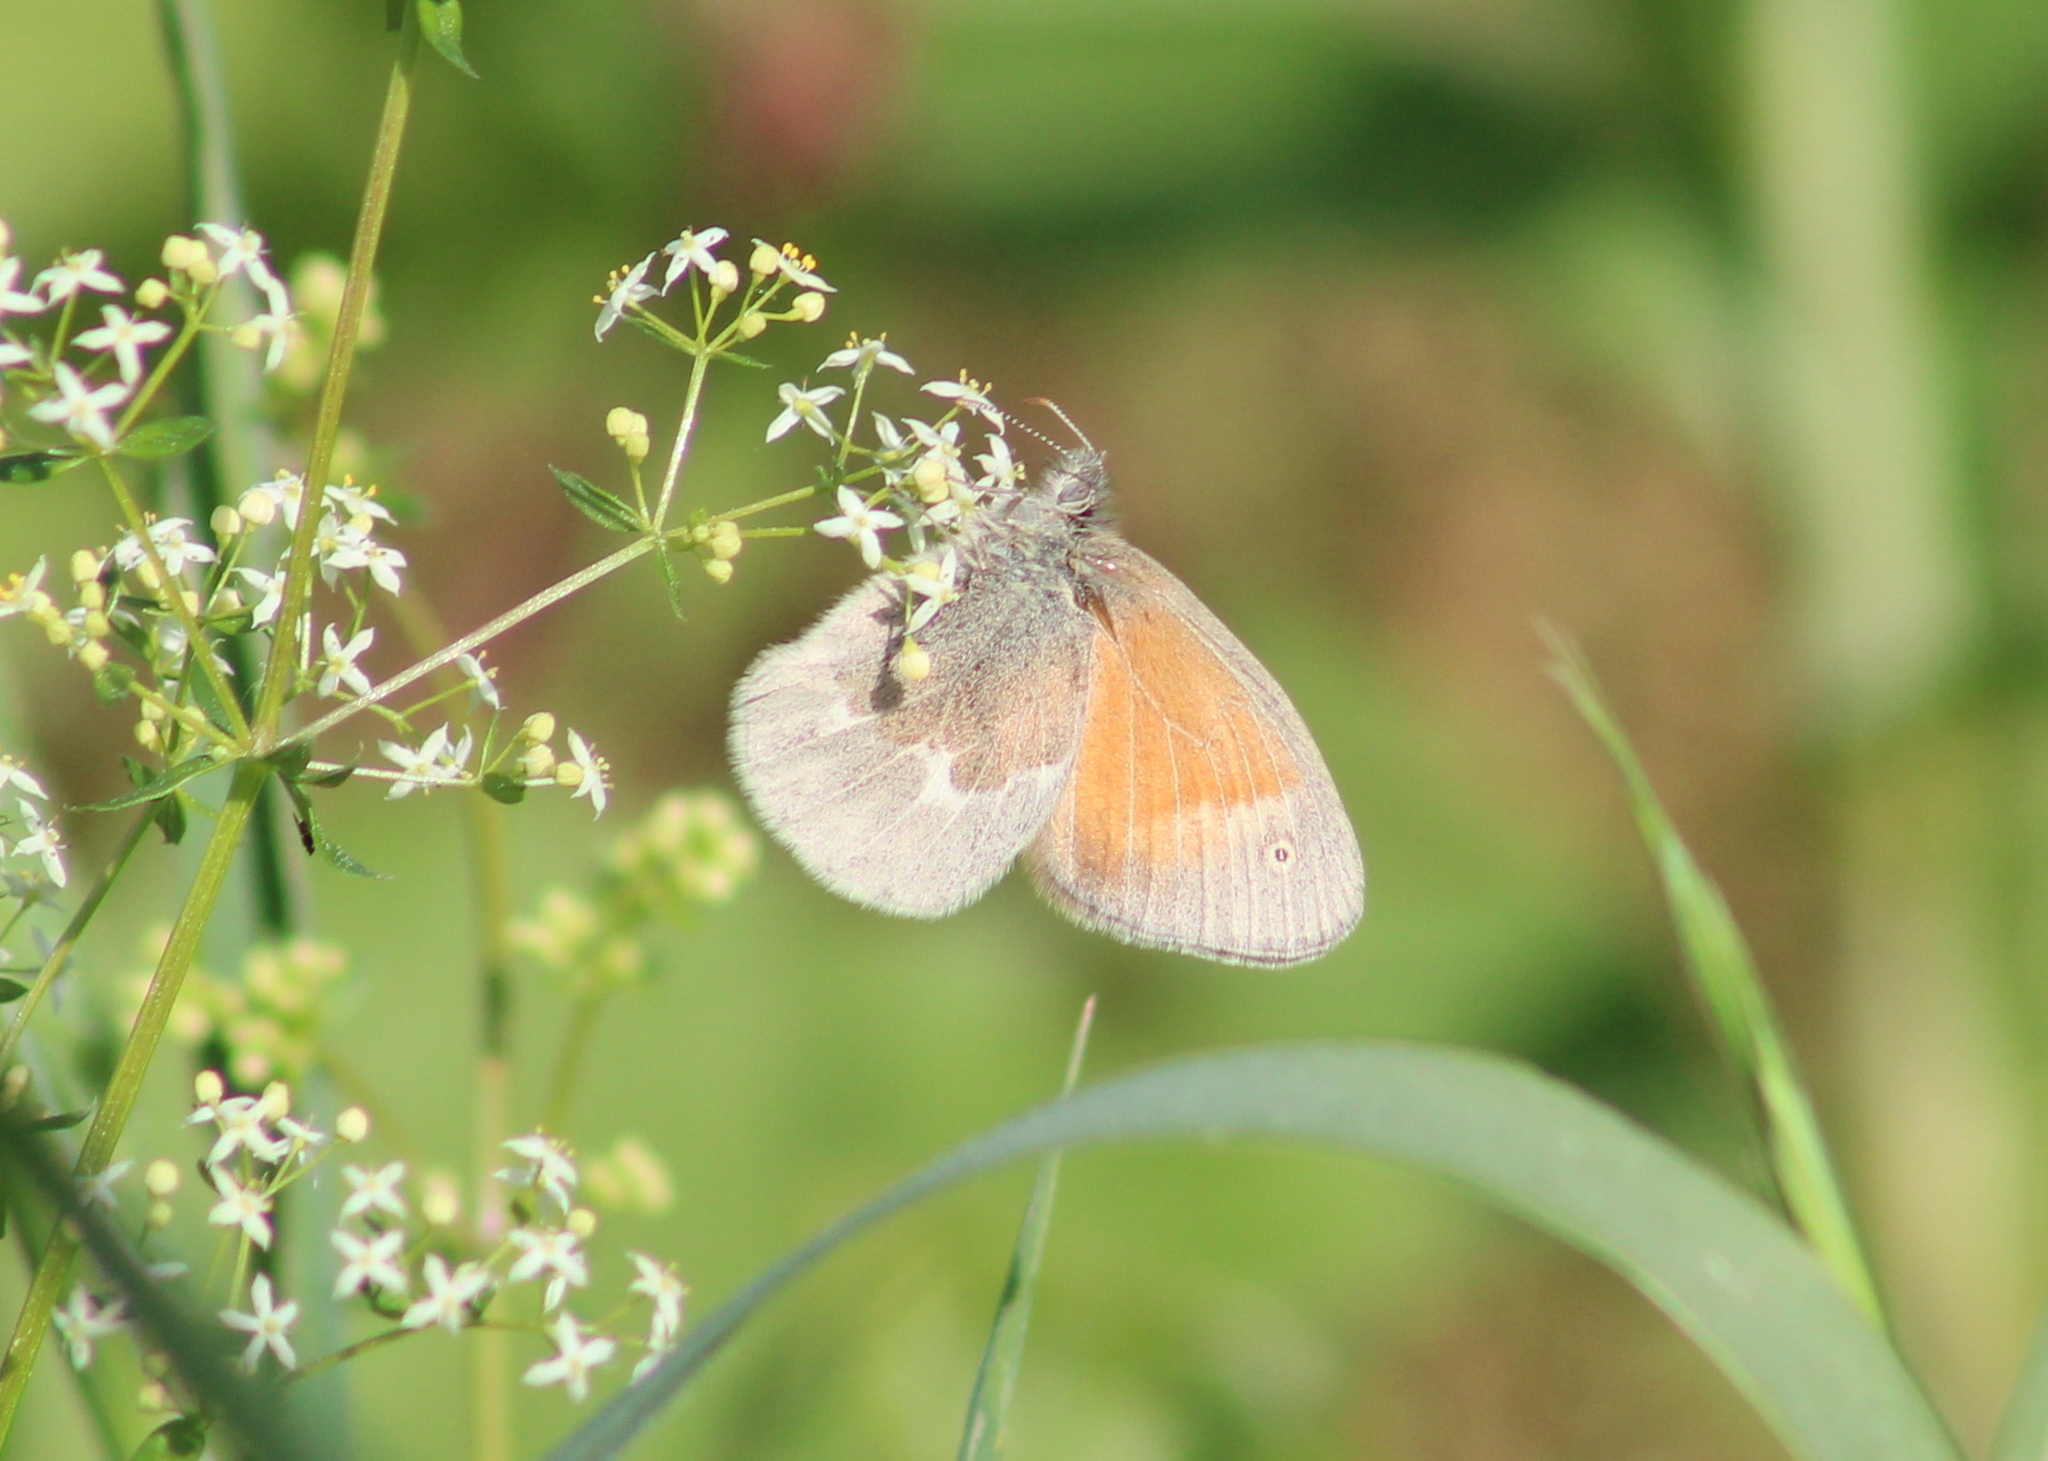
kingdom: Animalia
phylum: Arthropoda
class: Insecta
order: Lepidoptera
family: Nymphalidae
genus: Coenonympha
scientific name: Coenonympha california
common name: Common ringlet
